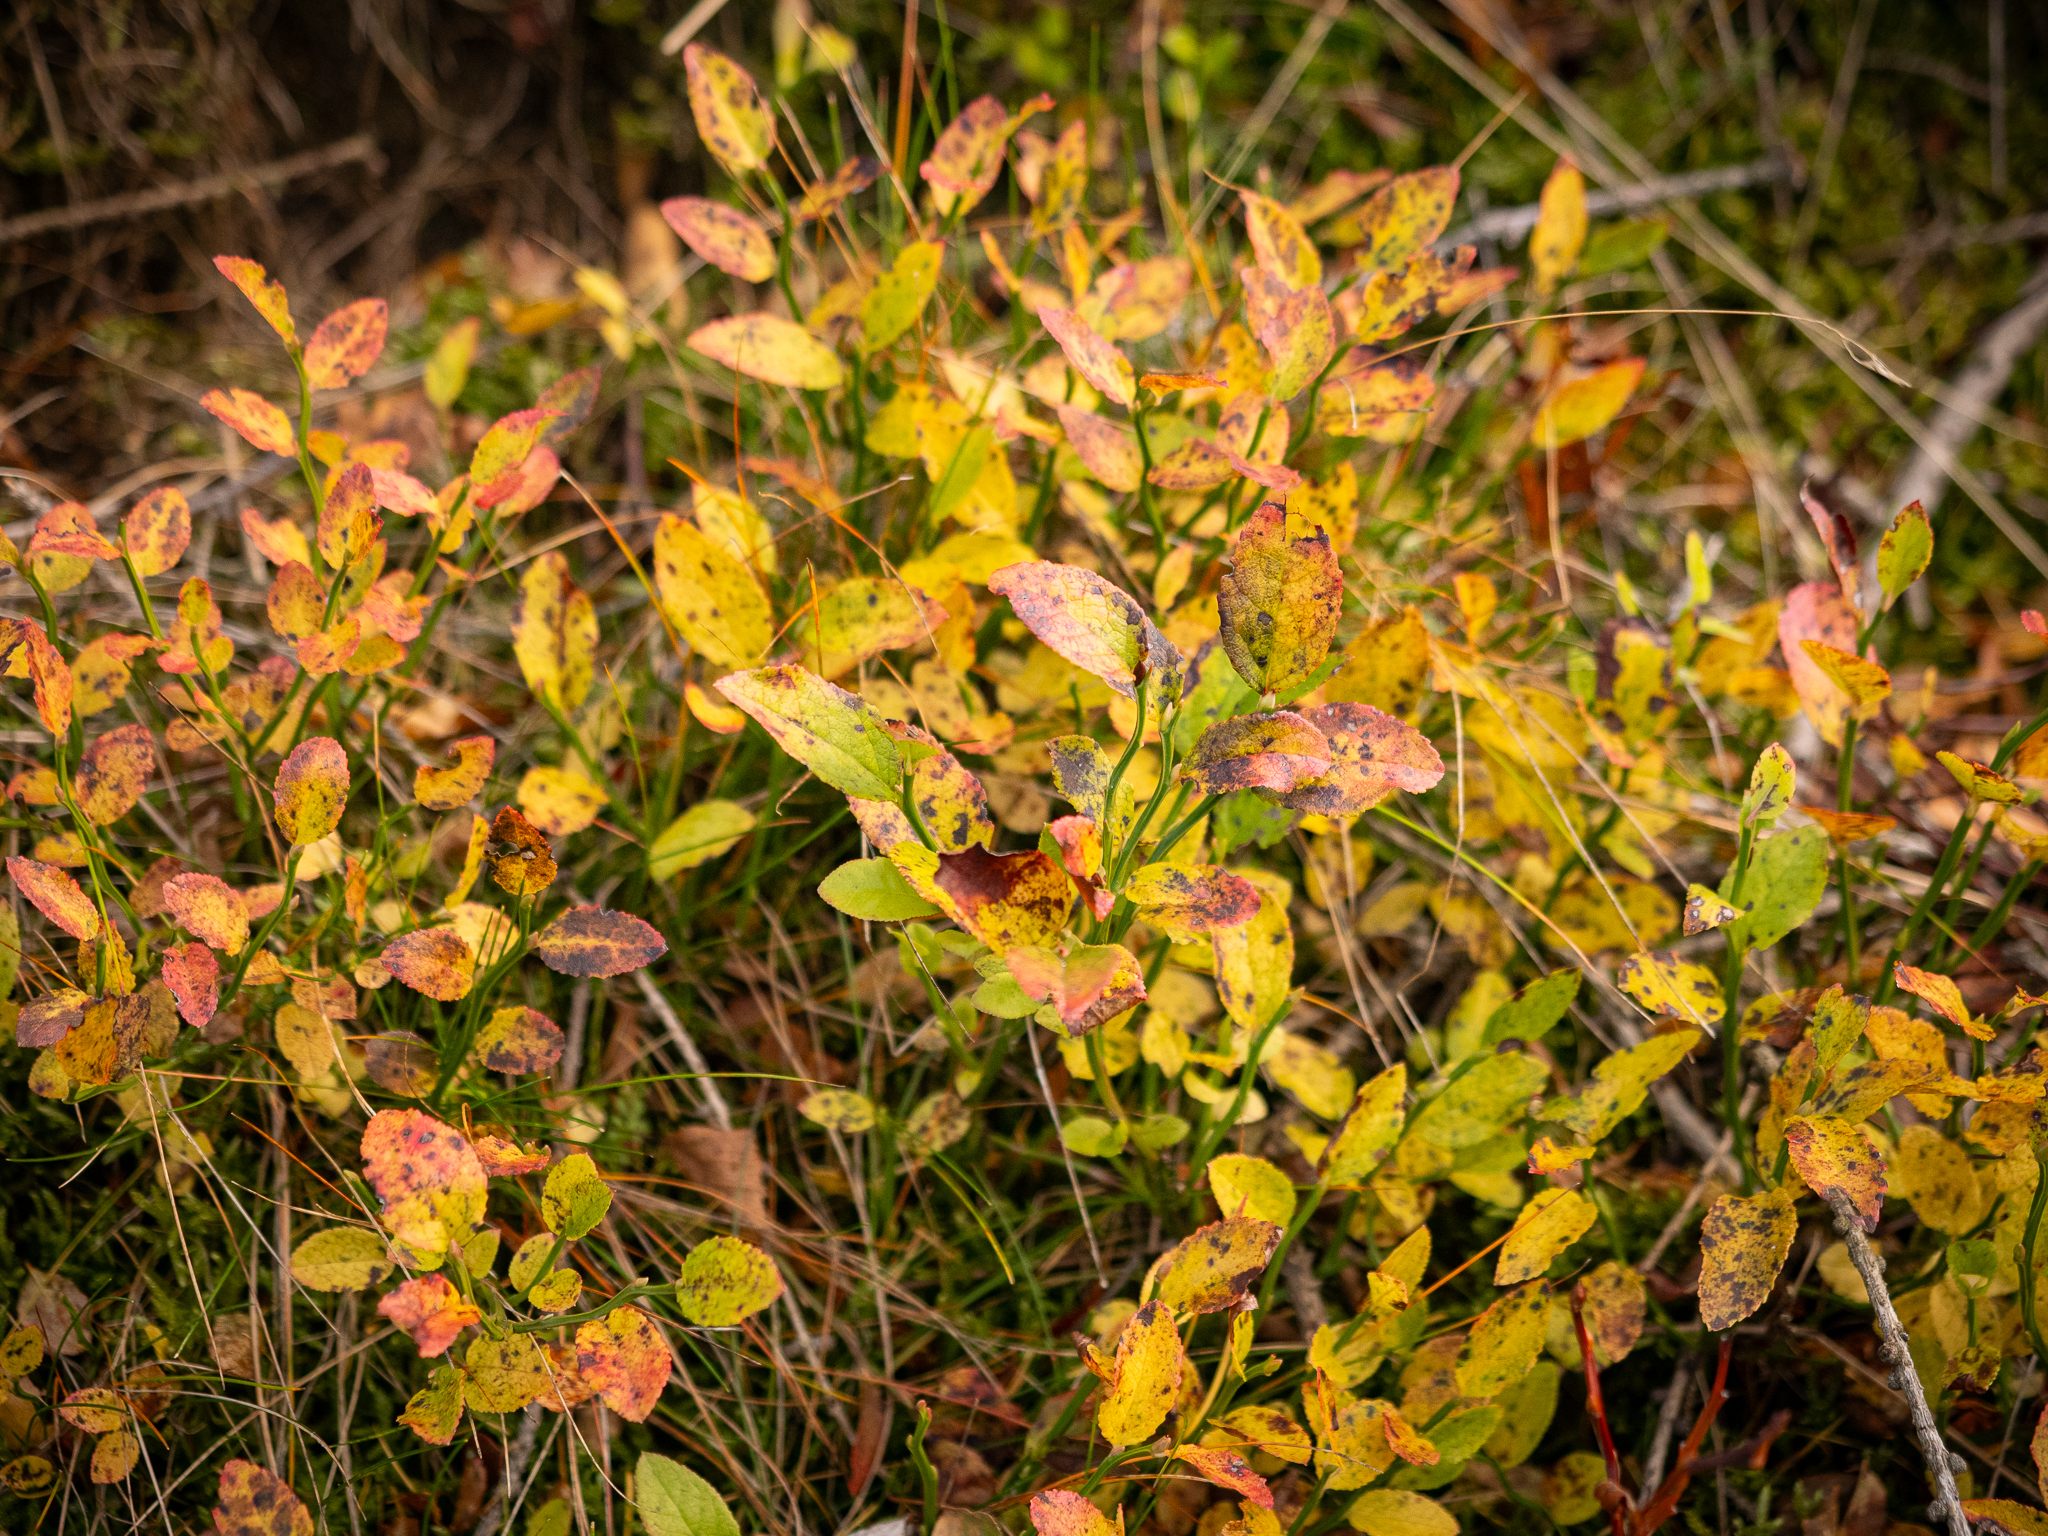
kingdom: Plantae
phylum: Tracheophyta
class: Magnoliopsida
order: Ericales
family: Ericaceae
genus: Vaccinium
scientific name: Vaccinium myrtillus
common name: Bilberry
